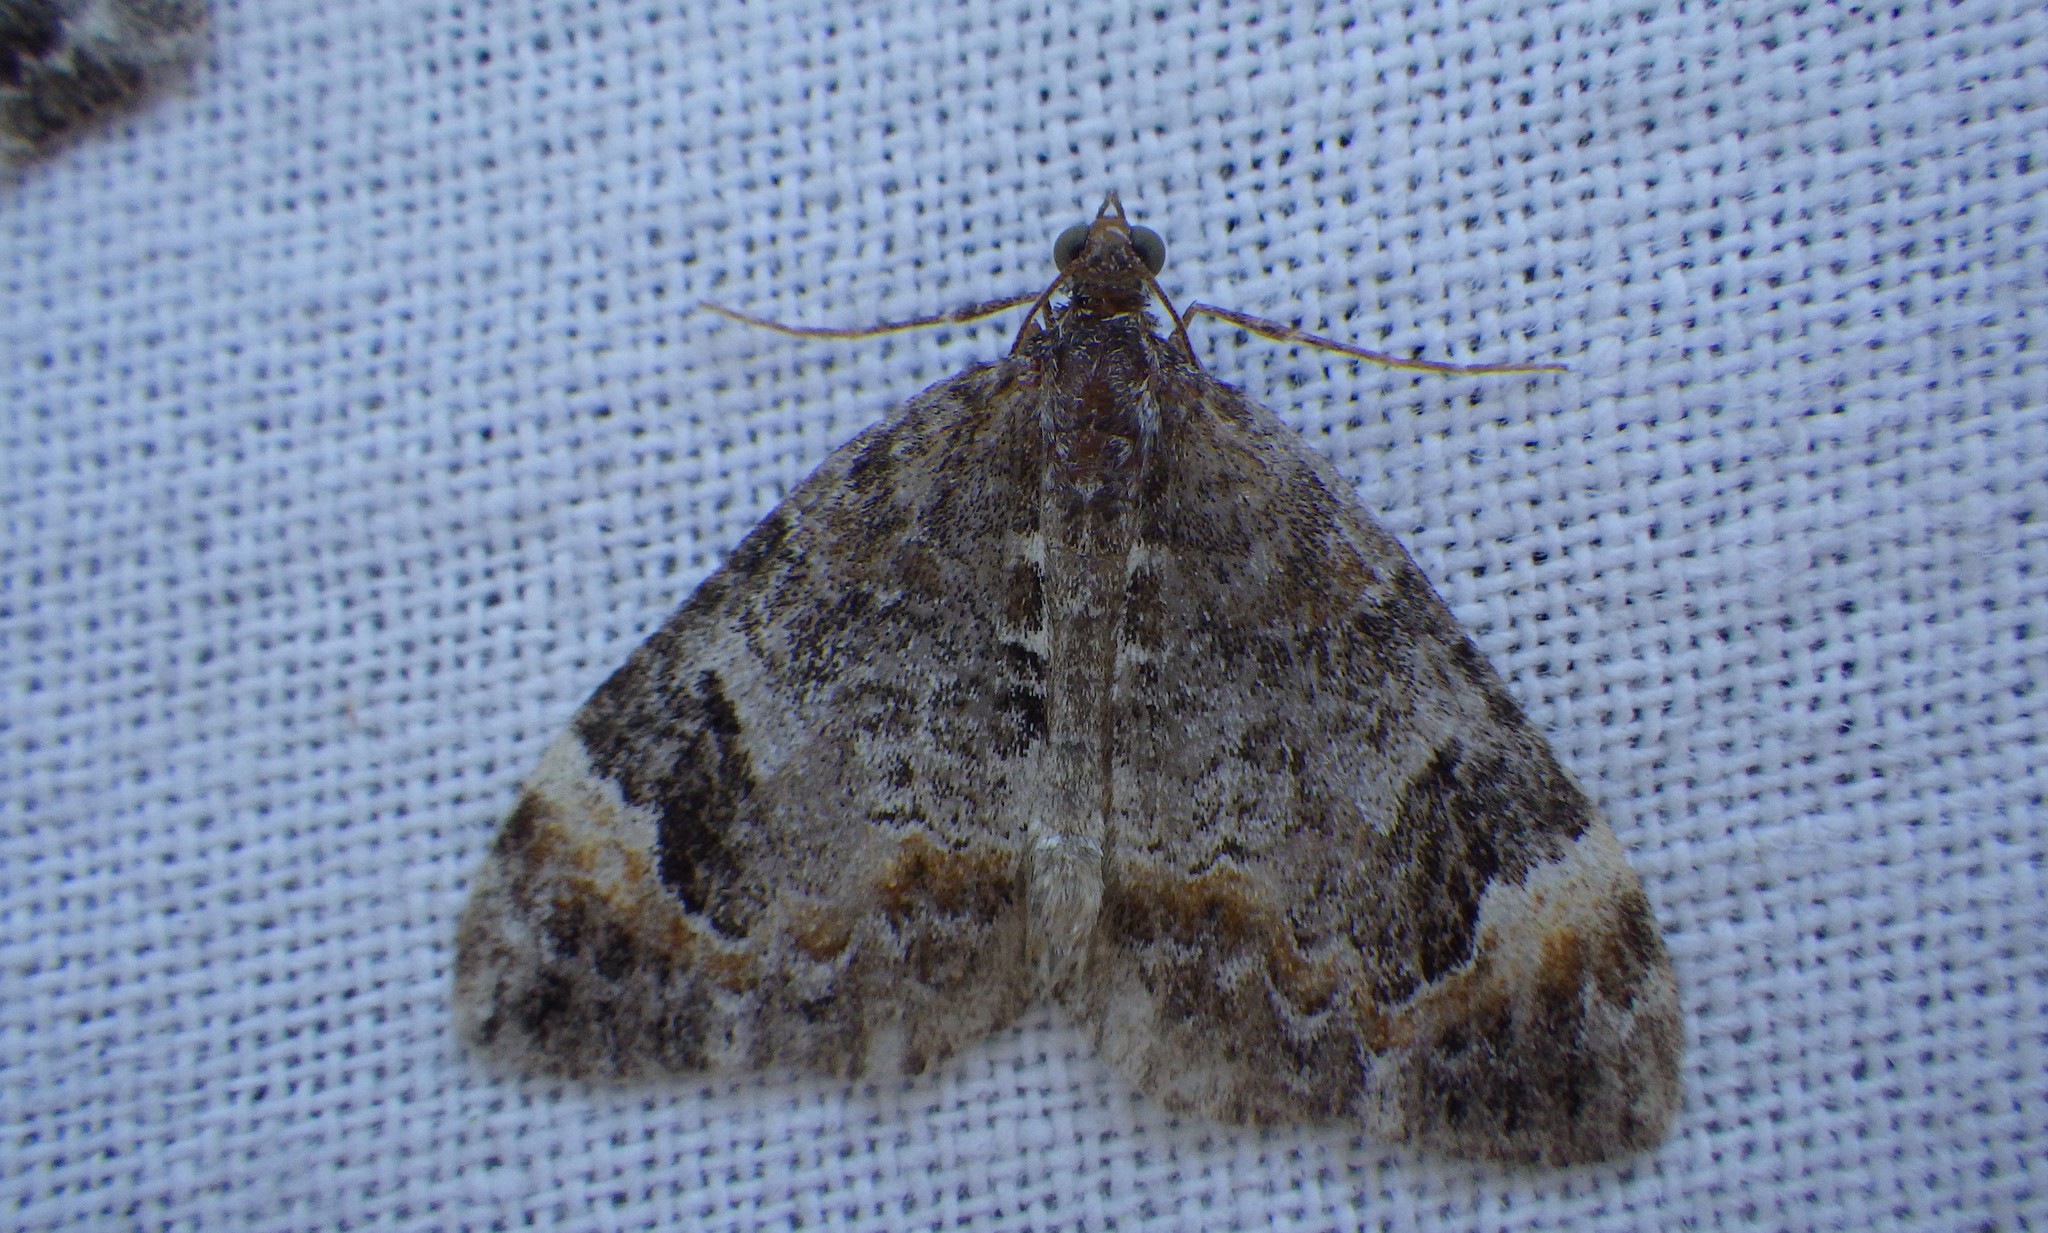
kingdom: Animalia
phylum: Arthropoda
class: Insecta
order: Lepidoptera
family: Geometridae
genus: Dysstroma
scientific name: Dysstroma truncata
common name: Common marbled carpet
